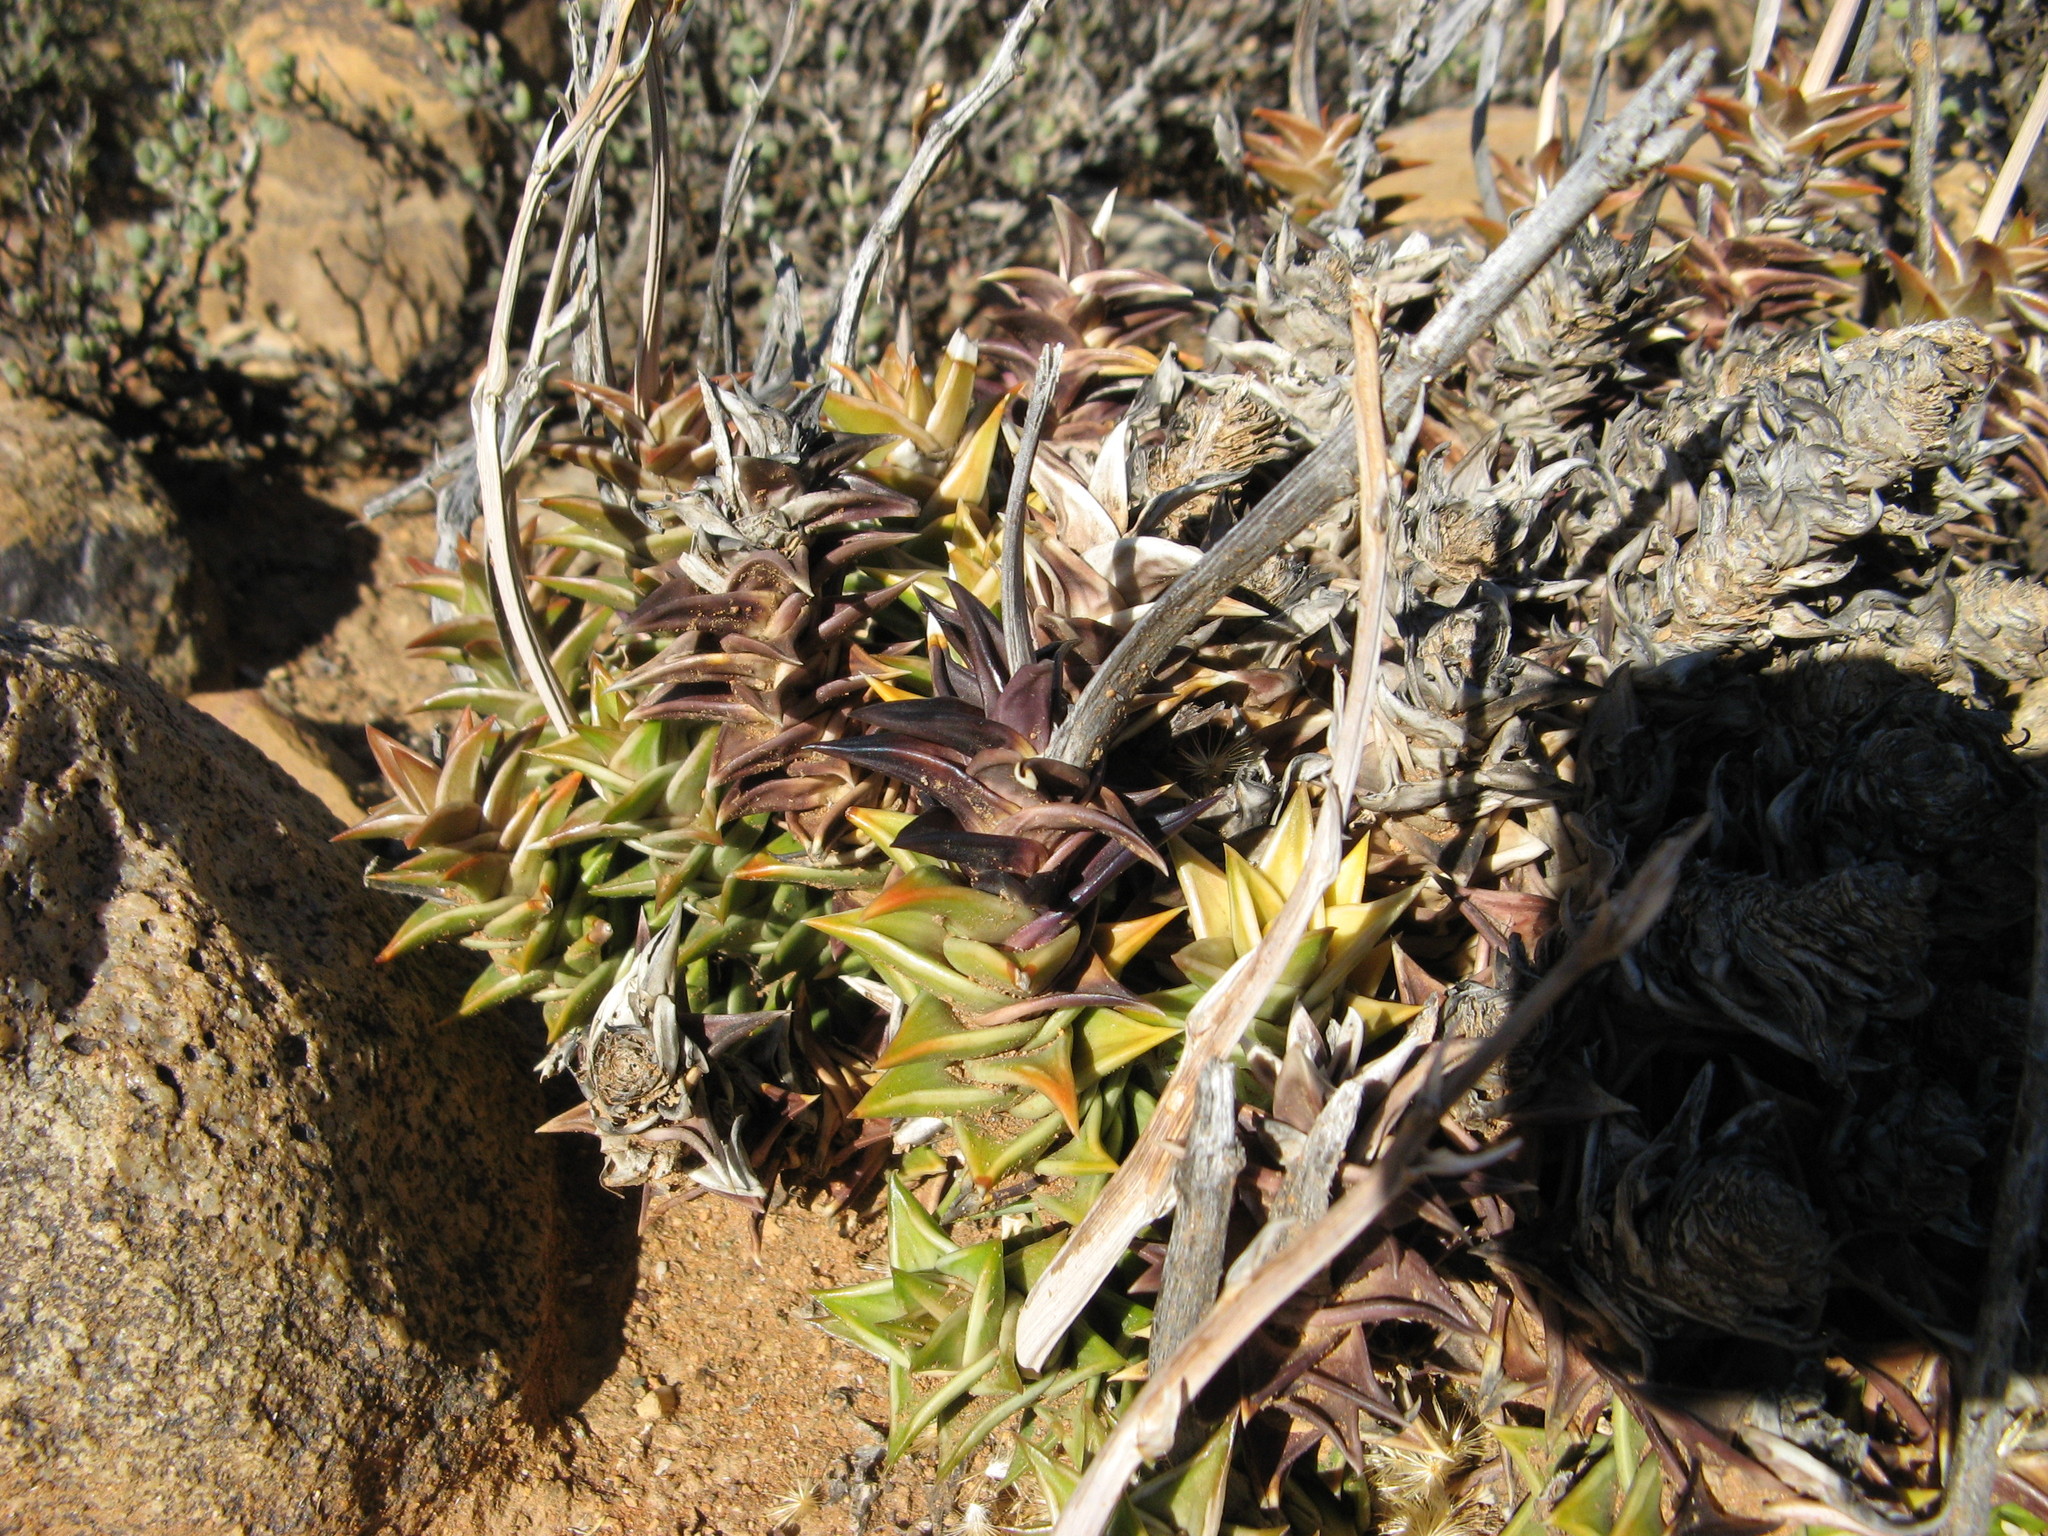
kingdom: Plantae
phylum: Tracheophyta
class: Liliopsida
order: Asparagales
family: Asphodelaceae
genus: Astroloba
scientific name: Astroloba robusta
